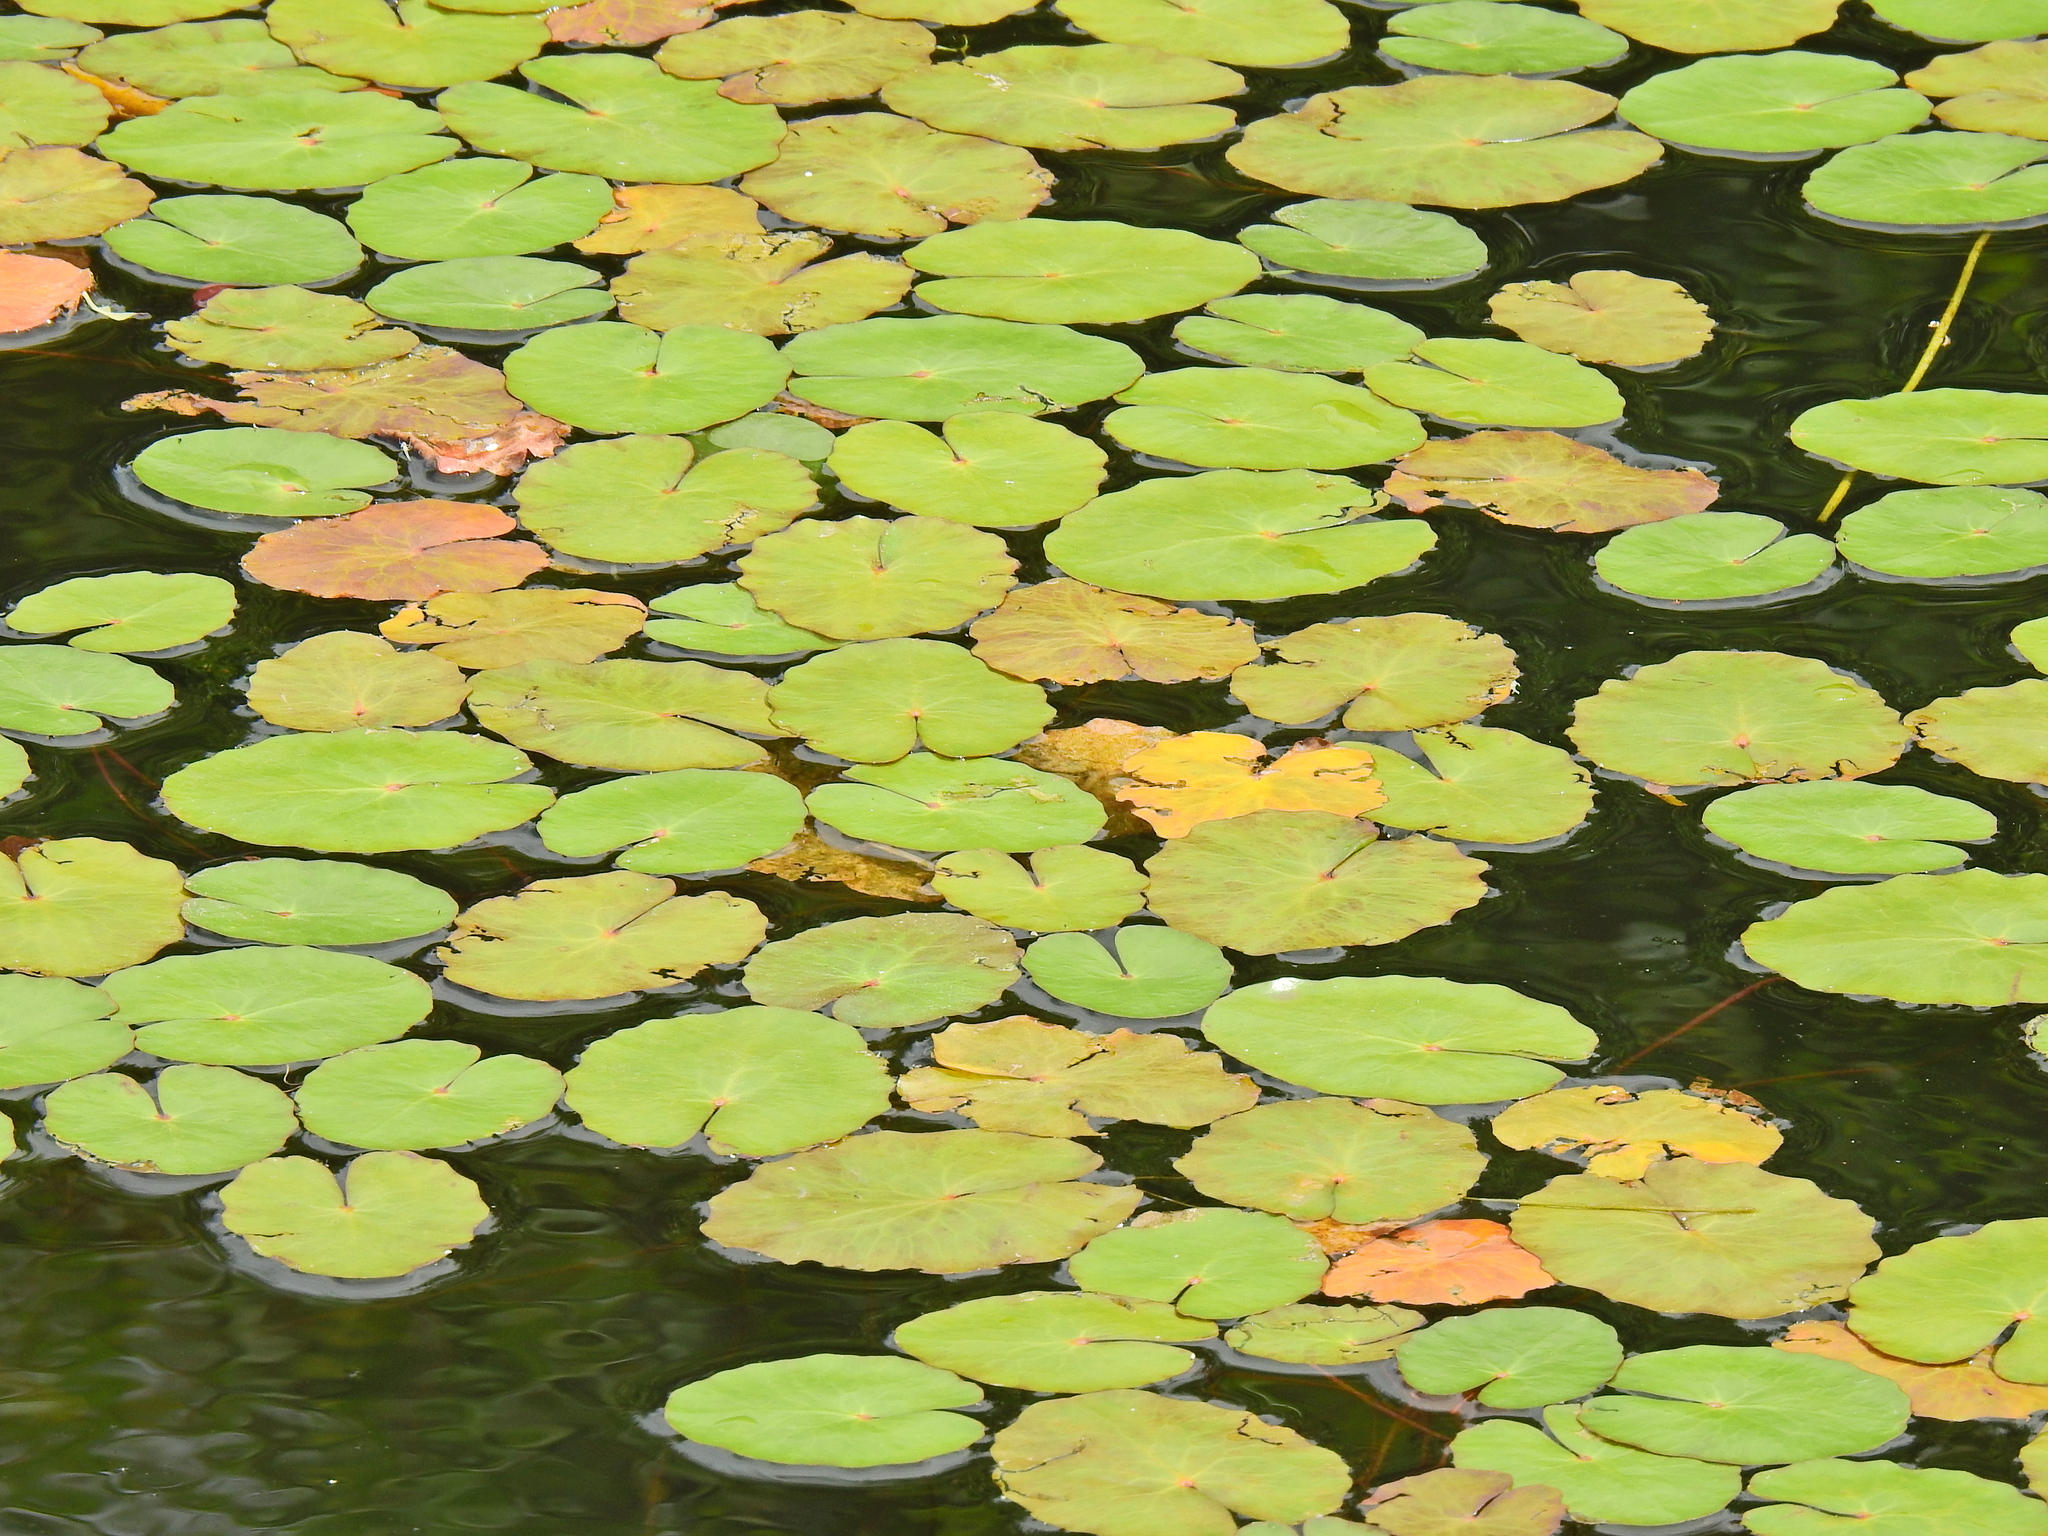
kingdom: Plantae
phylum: Tracheophyta
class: Magnoliopsida
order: Asterales
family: Menyanthaceae
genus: Nymphoides
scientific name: Nymphoides peltata
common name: Fringed water-lily
